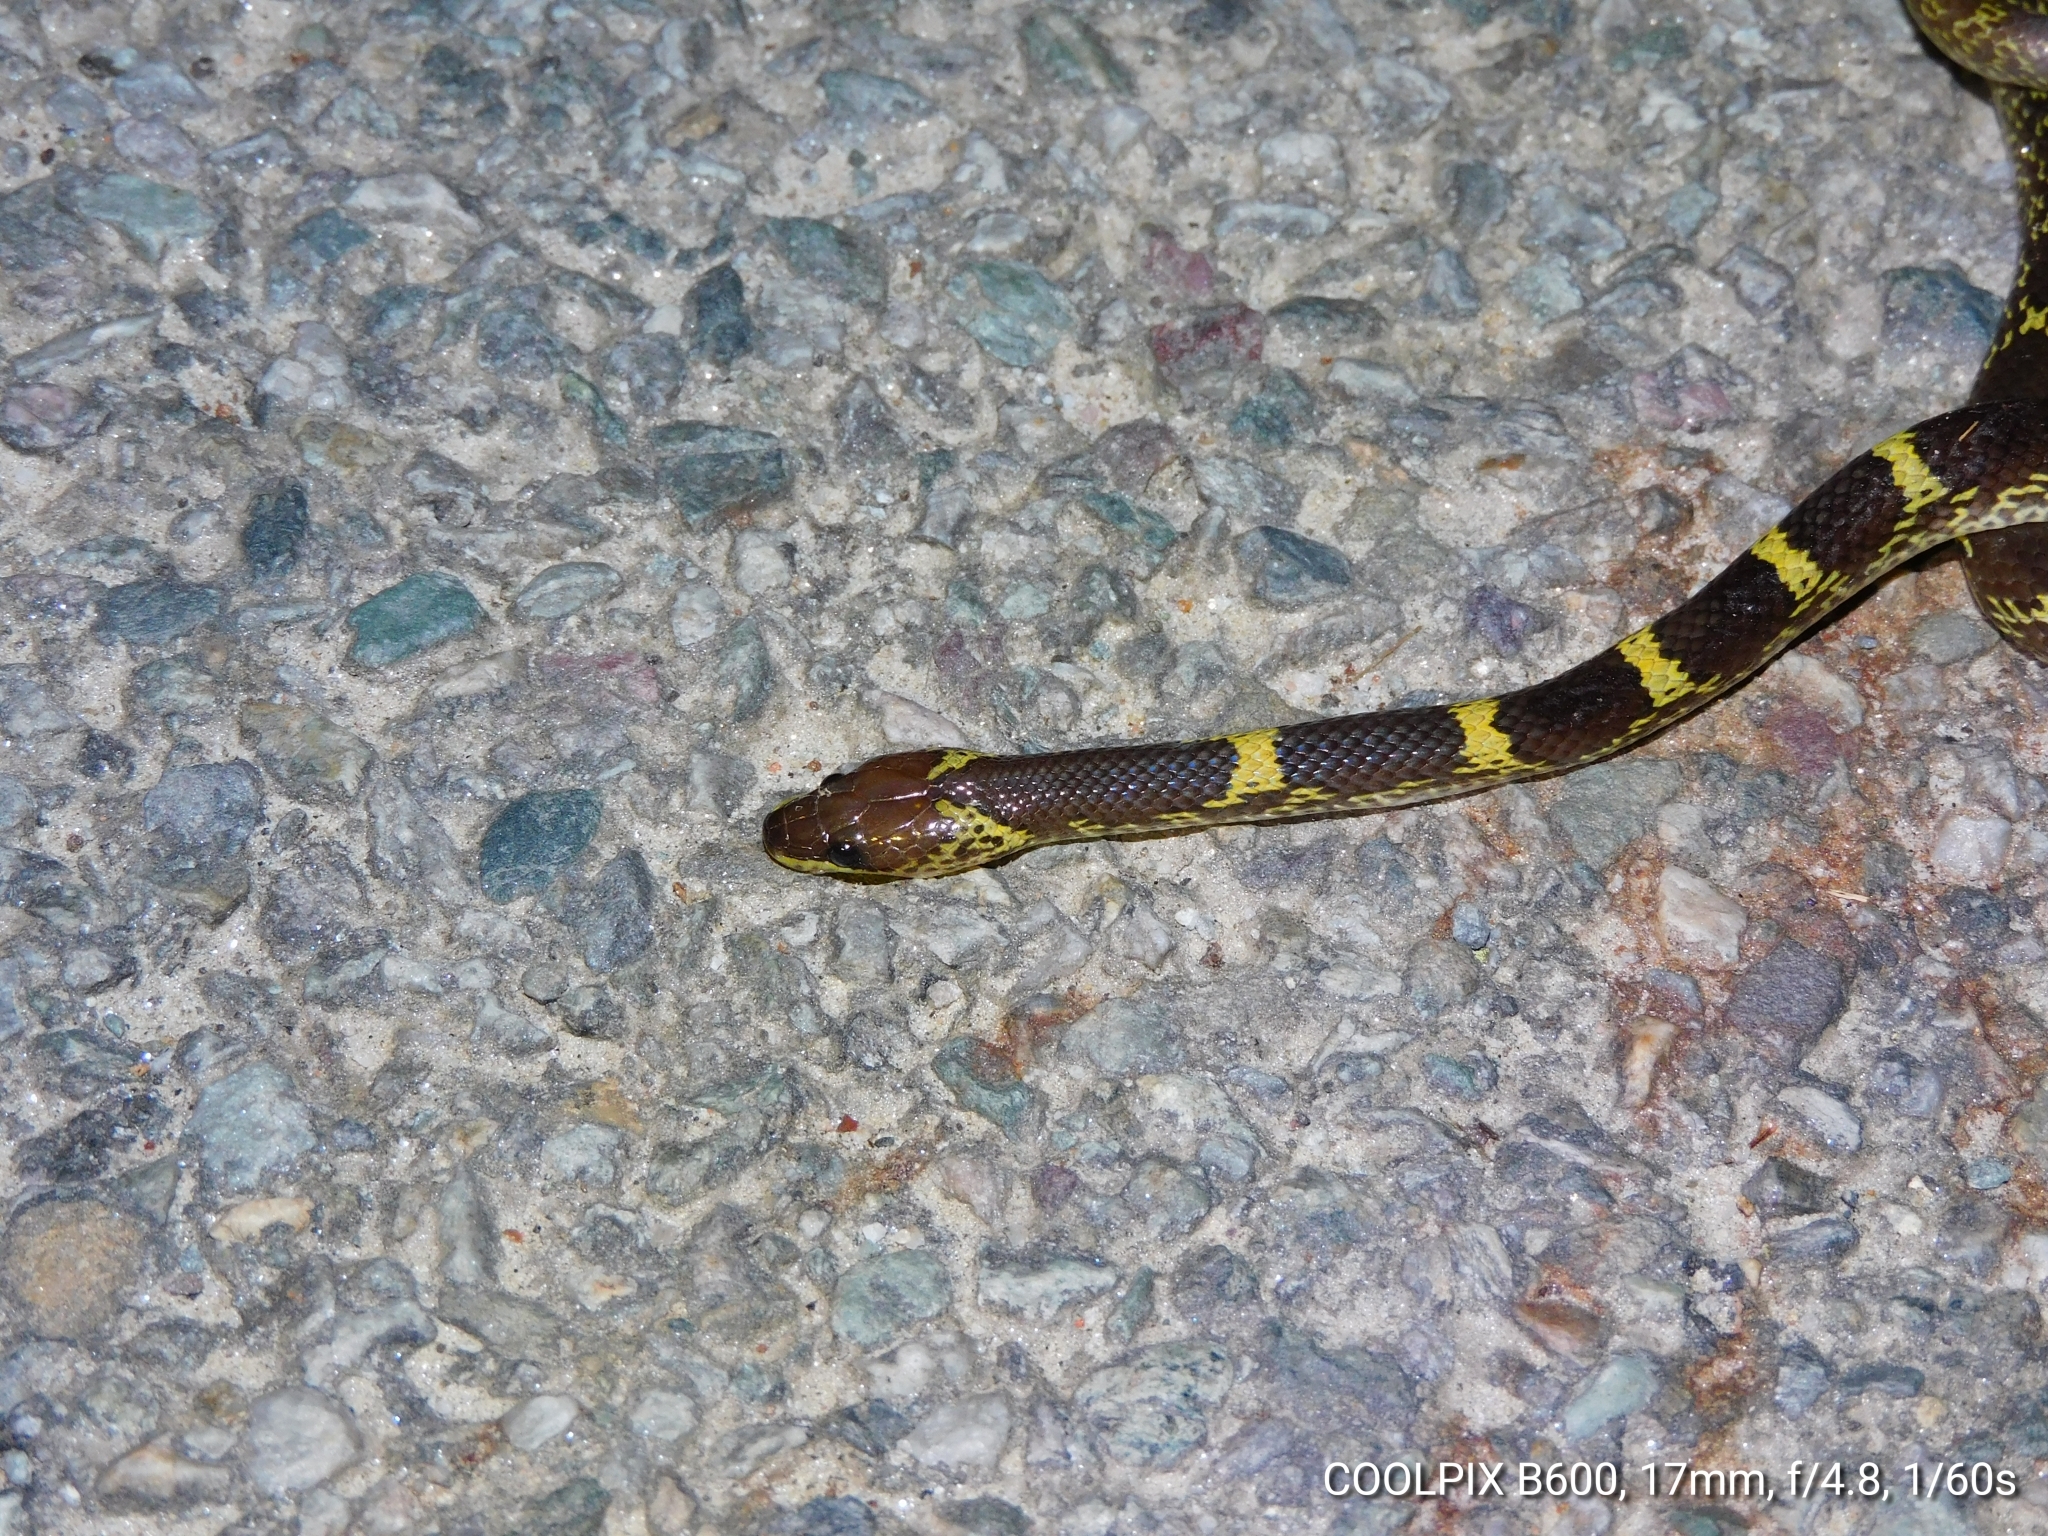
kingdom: Animalia
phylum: Chordata
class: Squamata
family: Colubridae
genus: Lycodon
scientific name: Lycodon aulicus
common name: Common wolf snake
